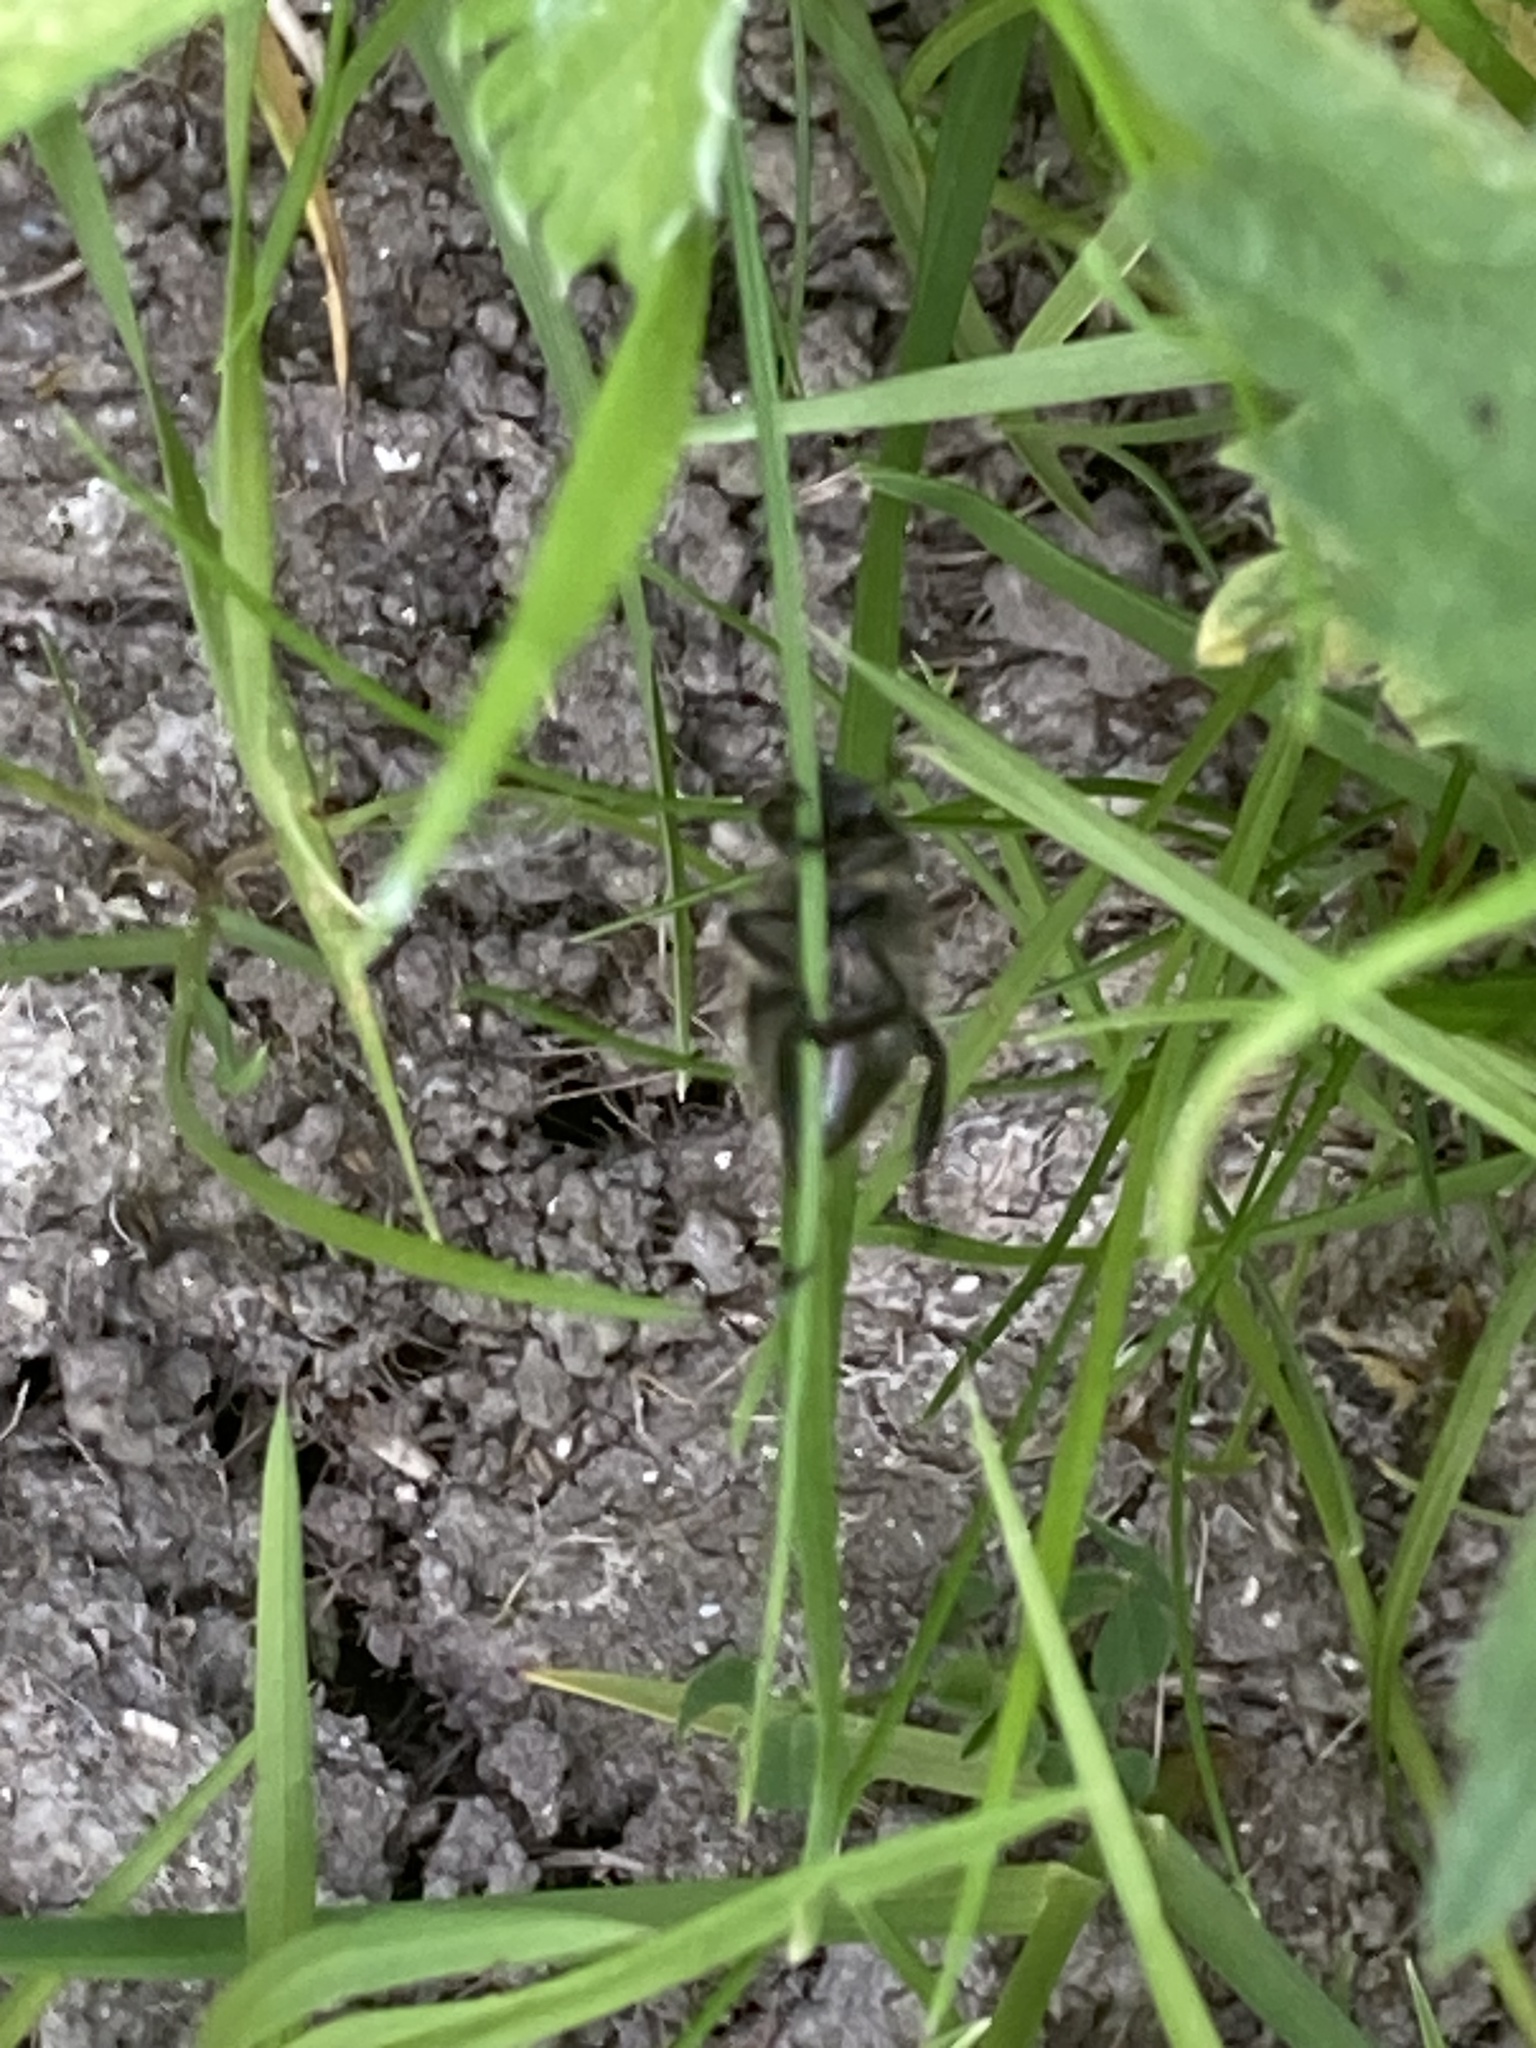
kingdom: Animalia
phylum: Arthropoda
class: Insecta
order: Coleoptera
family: Scarabaeidae
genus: Phyllopertha
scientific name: Phyllopertha horticola
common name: Garden chafer
